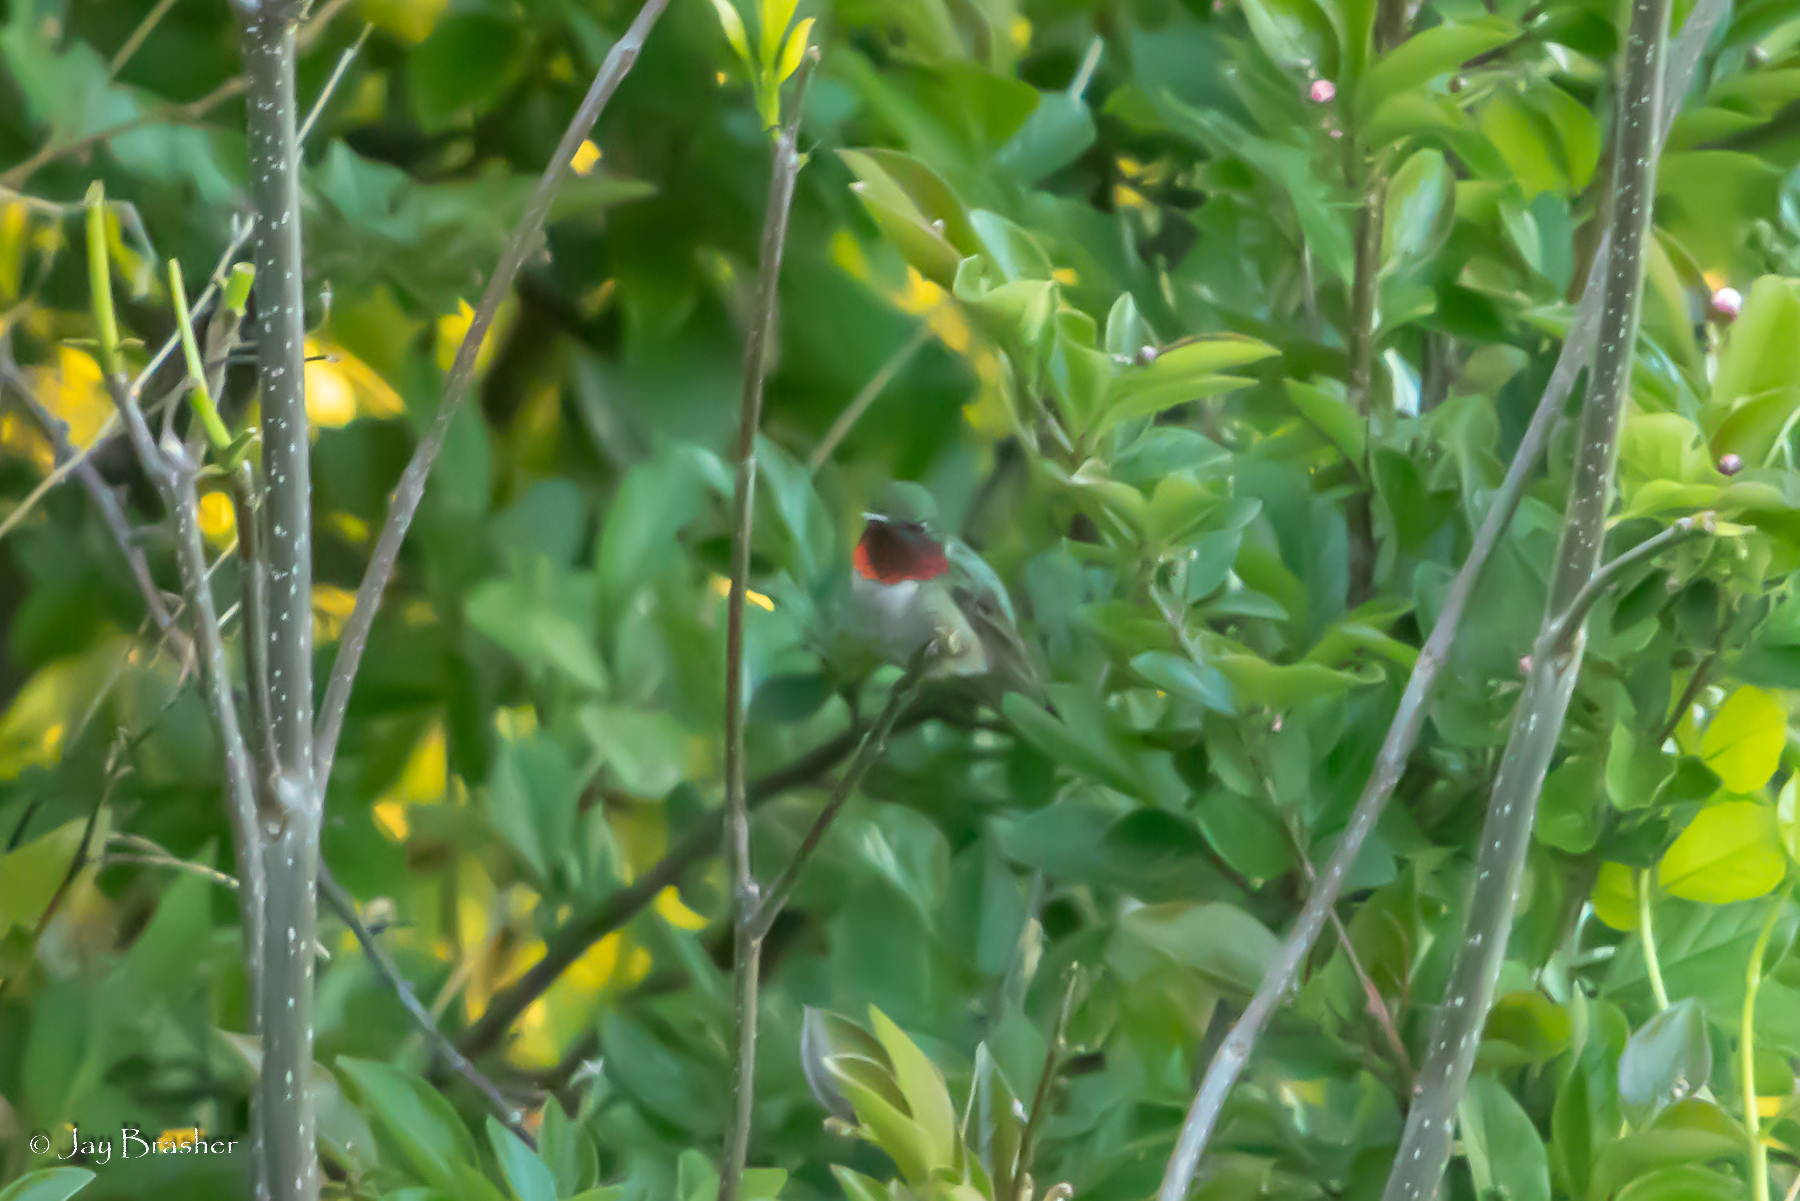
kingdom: Animalia
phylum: Chordata
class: Aves
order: Apodiformes
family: Trochilidae
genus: Archilochus
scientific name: Archilochus colubris
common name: Ruby-throated hummingbird
